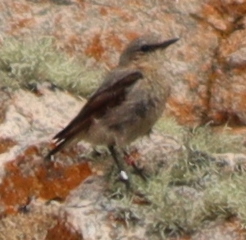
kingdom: Animalia
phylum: Chordata
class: Aves
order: Passeriformes
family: Muscicapidae
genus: Oenanthe
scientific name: Oenanthe oenanthe
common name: Northern wheatear
